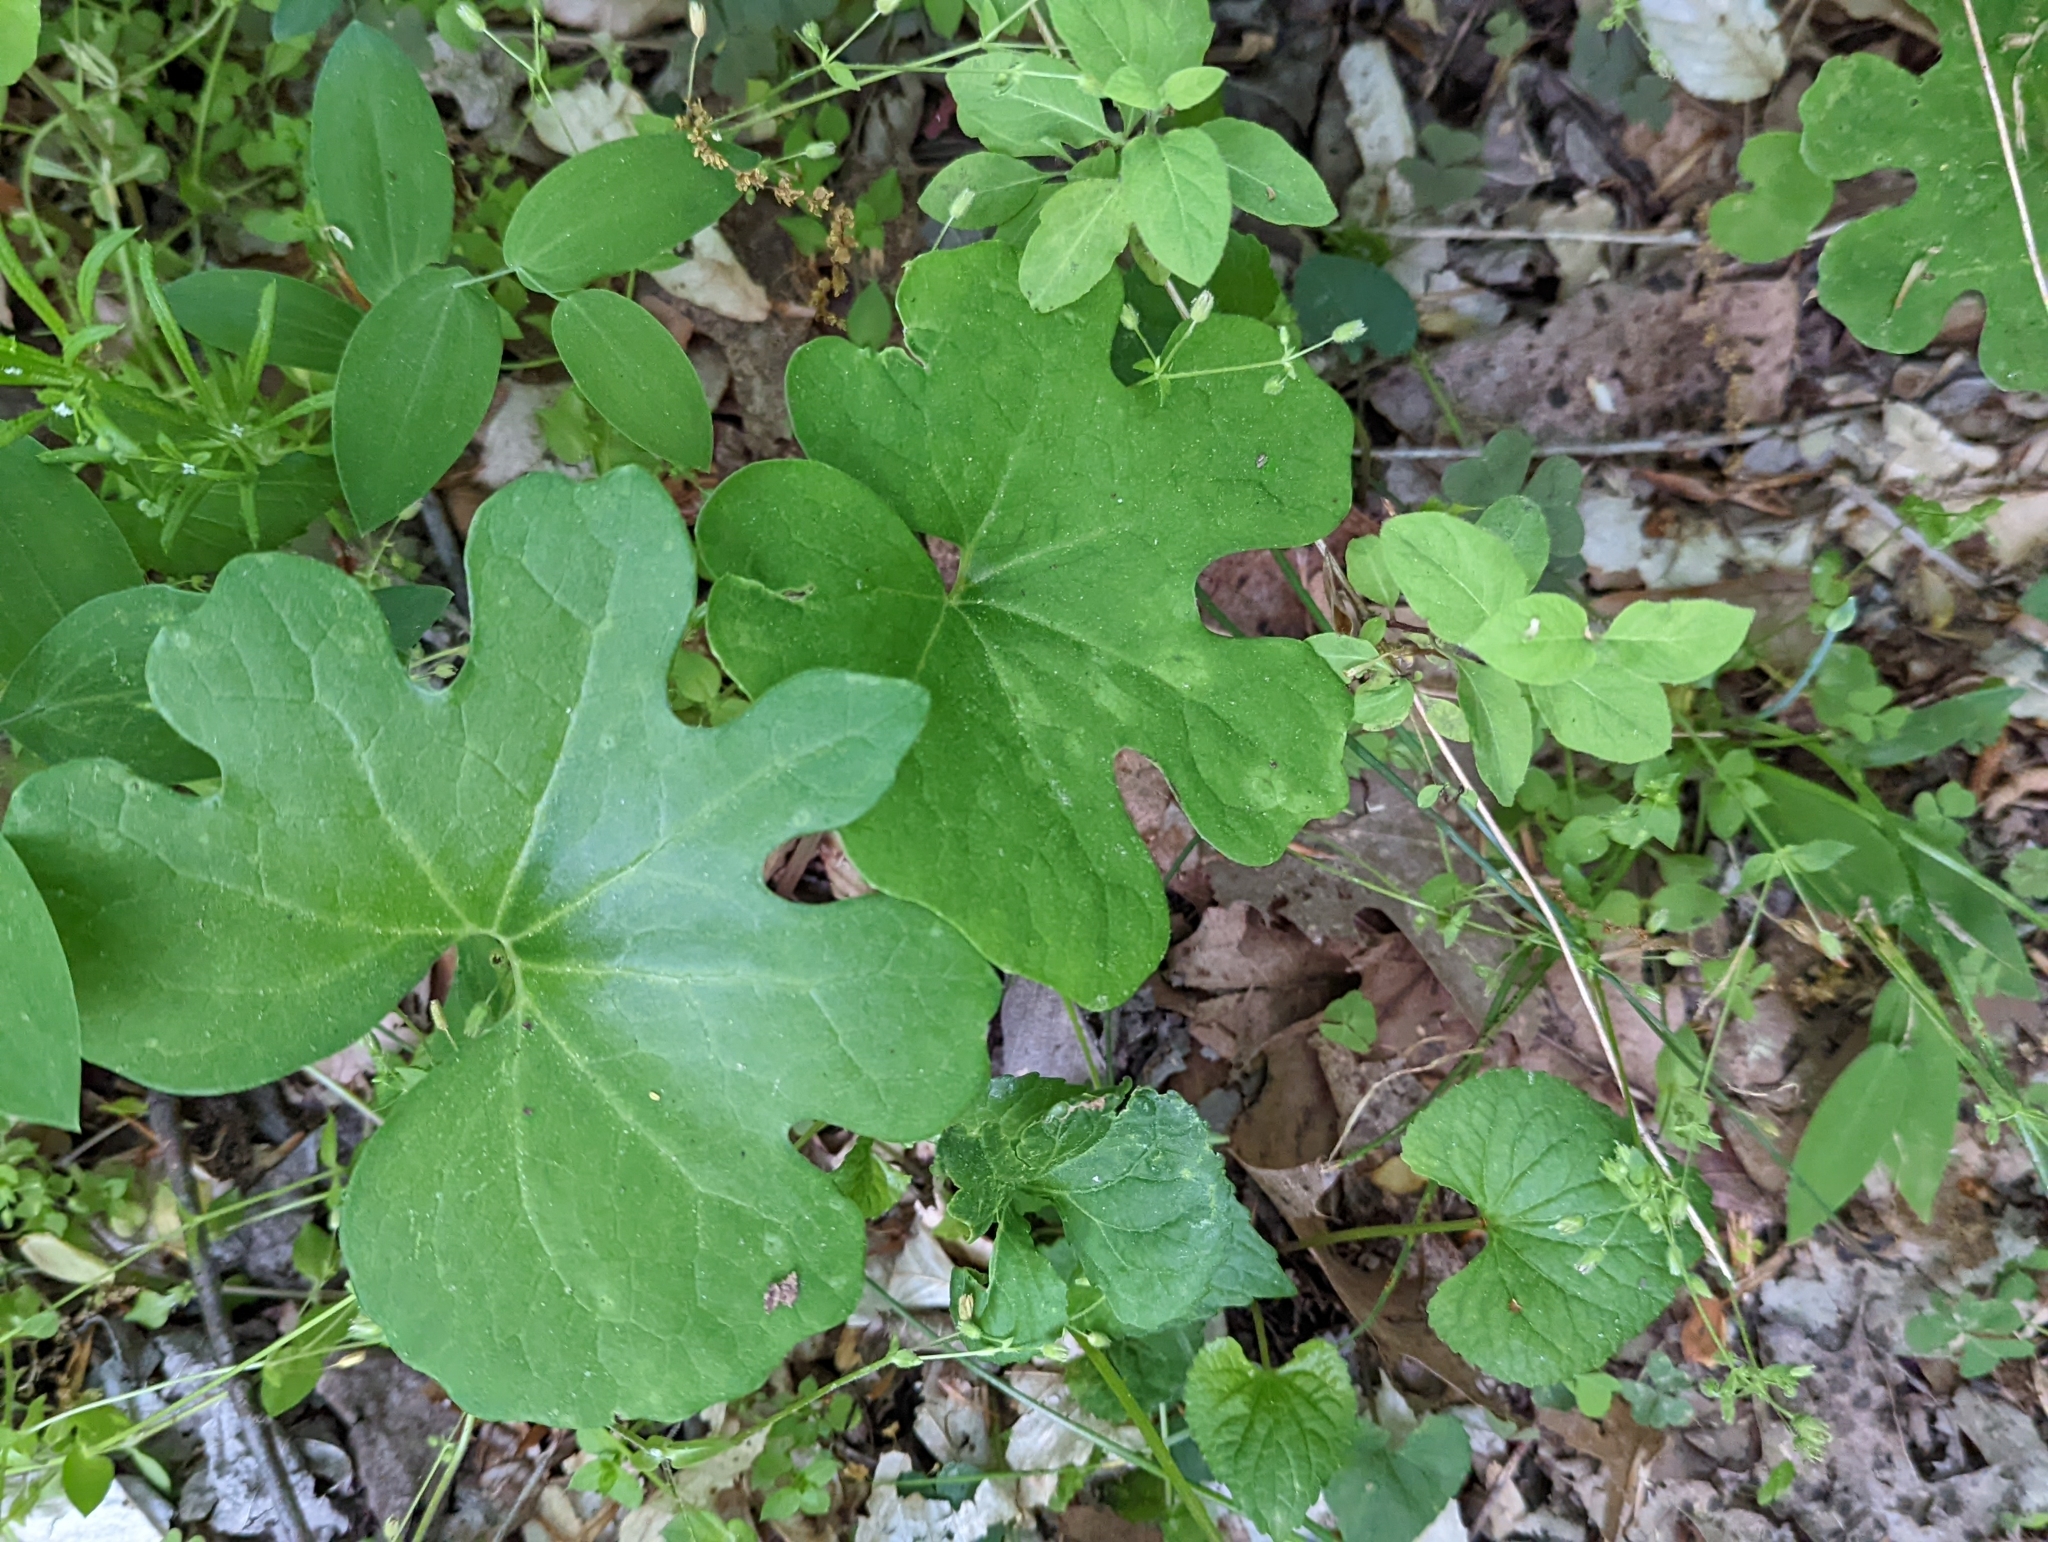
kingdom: Plantae
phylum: Tracheophyta
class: Magnoliopsida
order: Ranunculales
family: Papaveraceae
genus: Sanguinaria
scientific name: Sanguinaria canadensis
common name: Bloodroot
